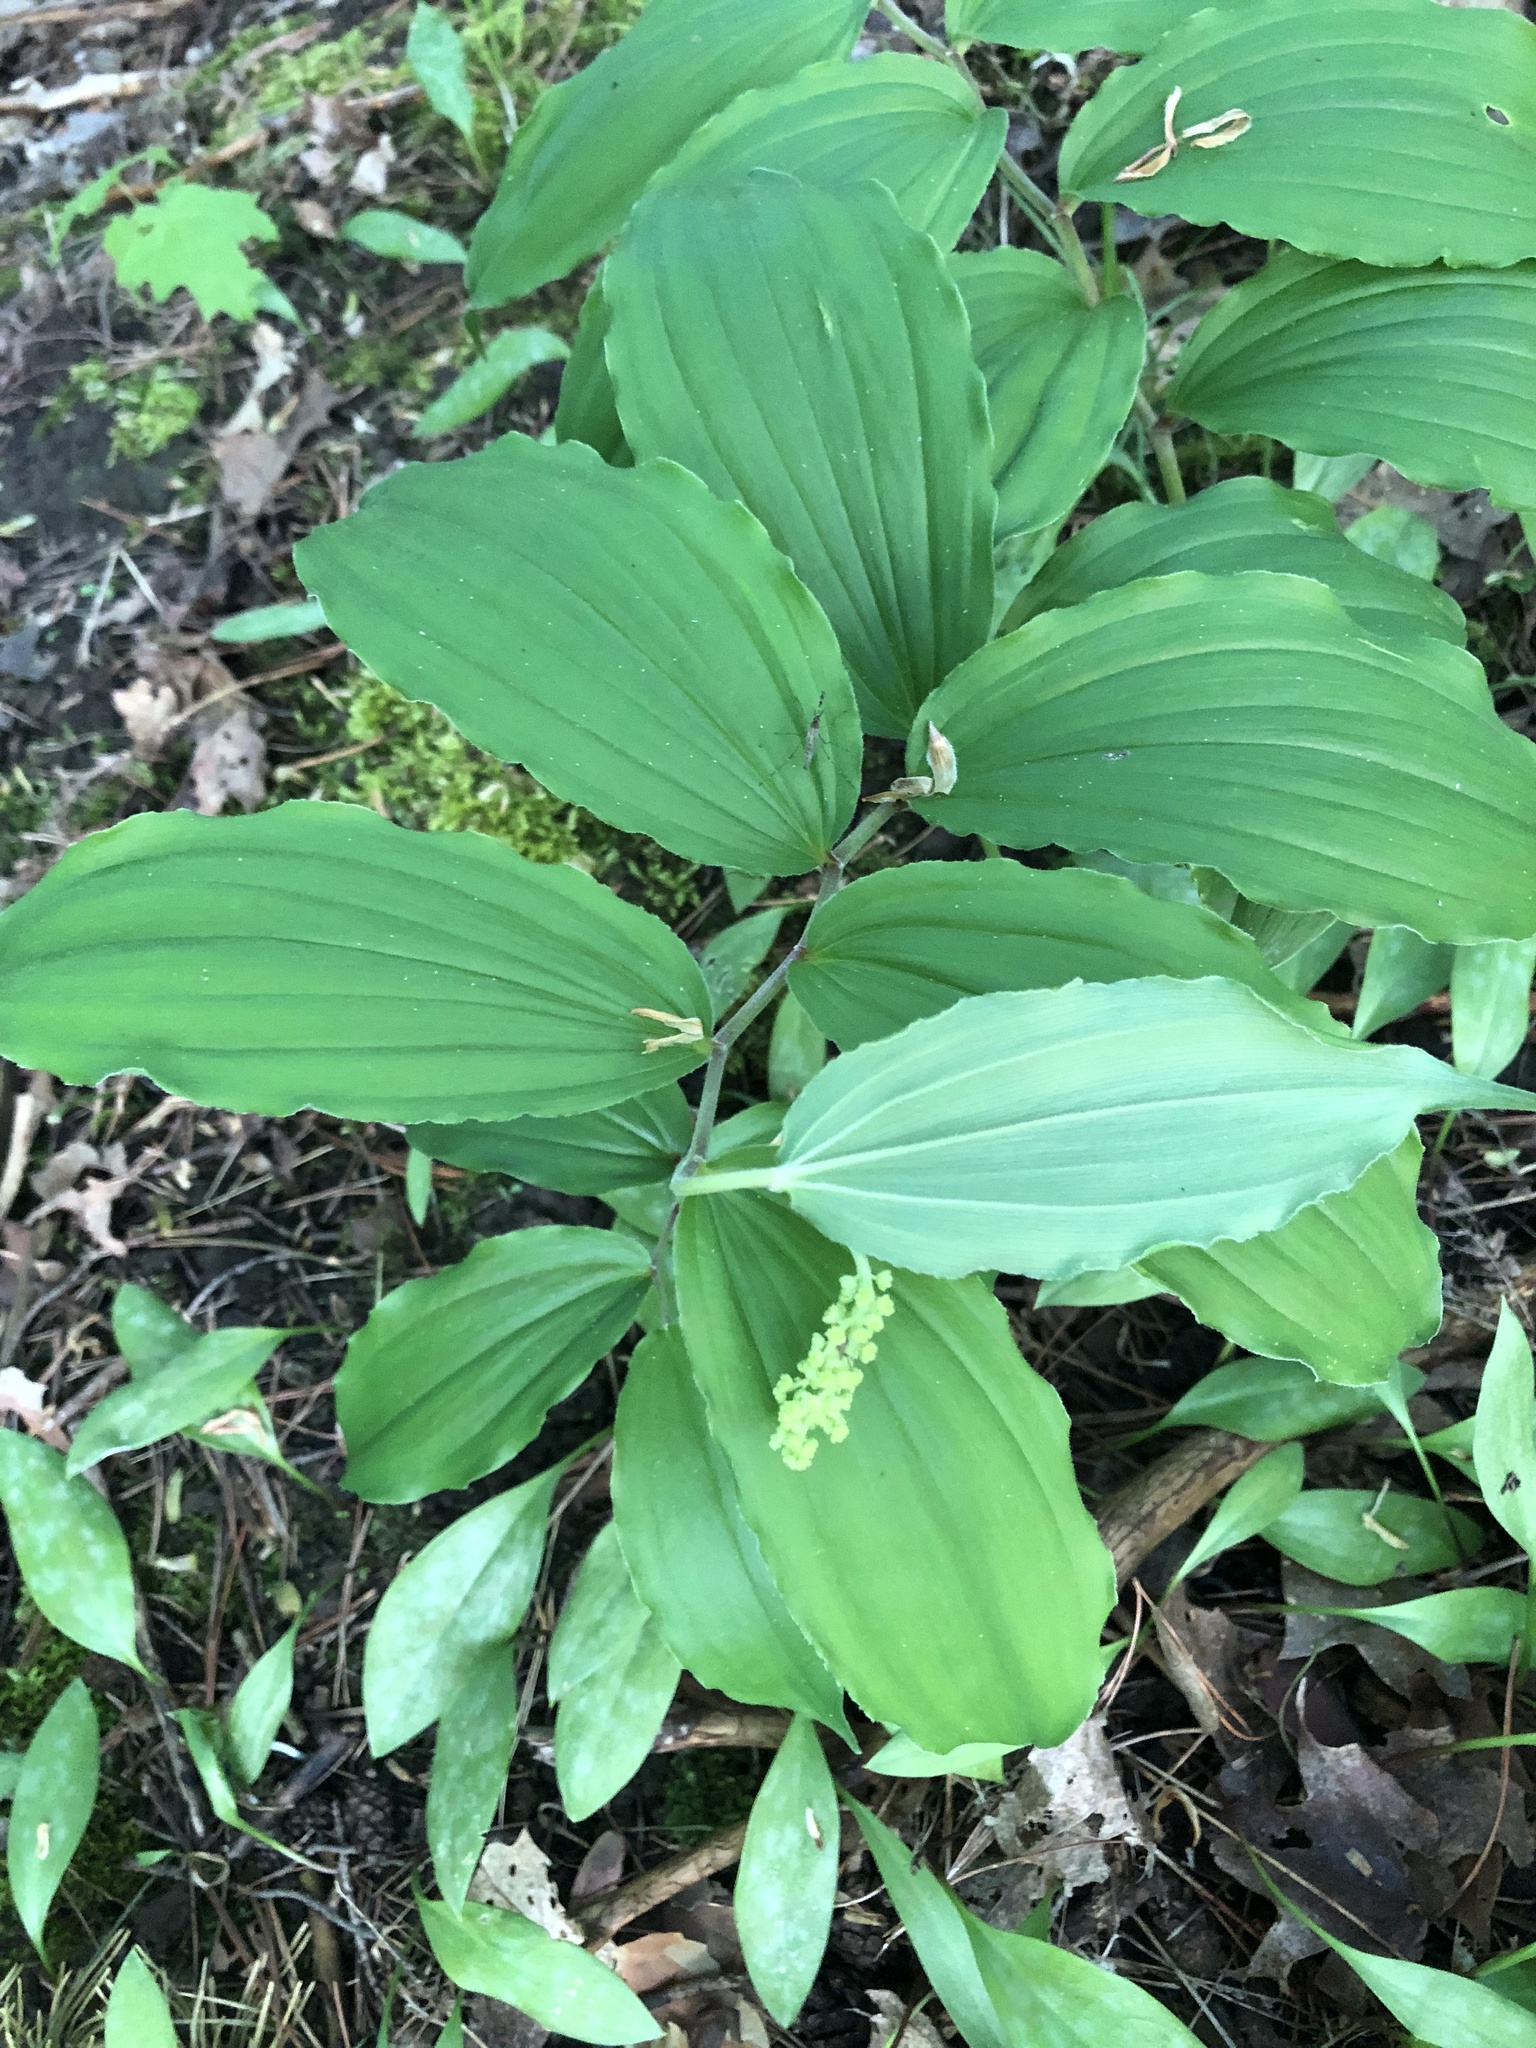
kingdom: Plantae
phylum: Tracheophyta
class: Liliopsida
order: Asparagales
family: Asparagaceae
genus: Maianthemum
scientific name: Maianthemum racemosum
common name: False spikenard
